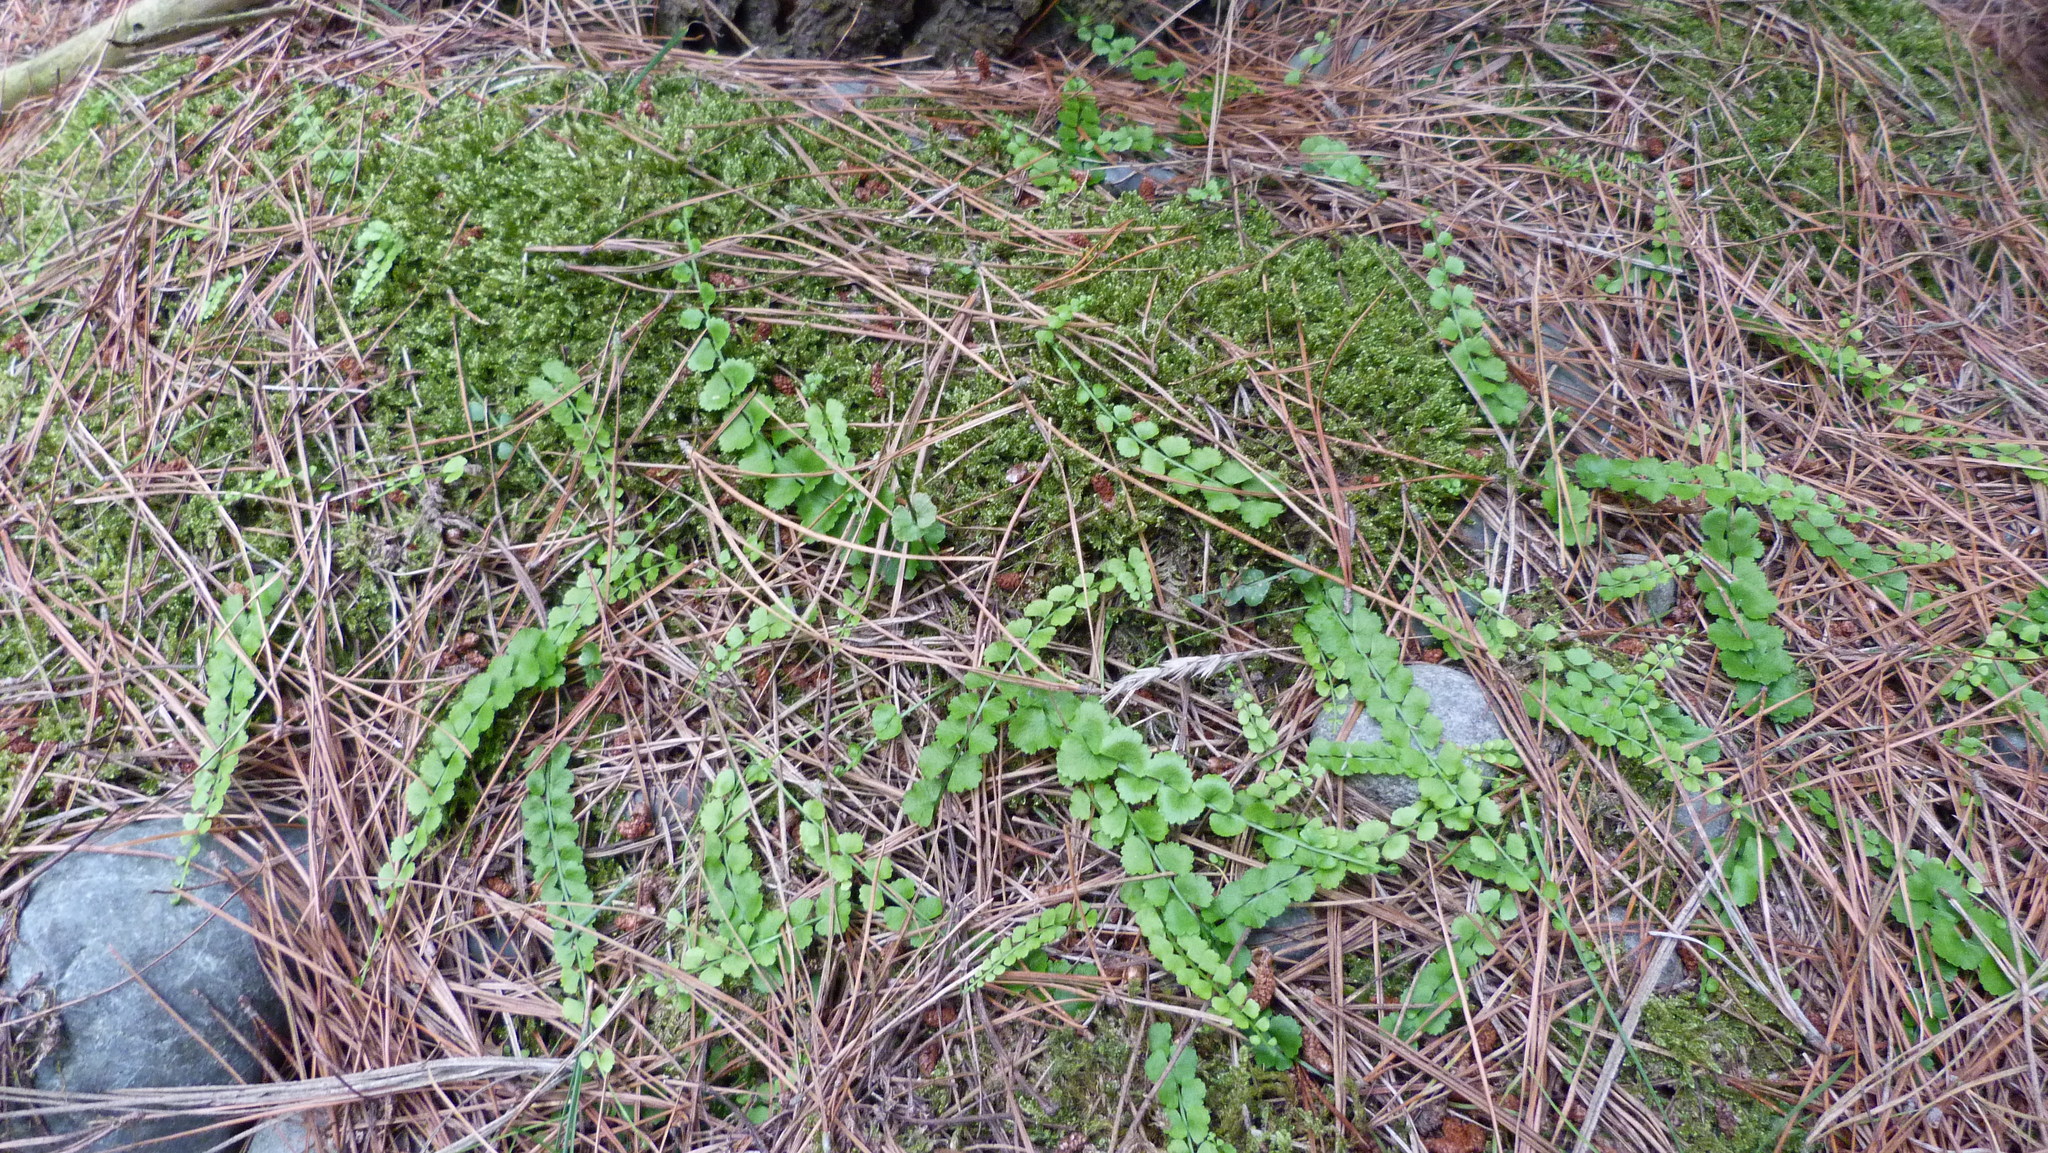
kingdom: Plantae
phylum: Tracheophyta
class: Polypodiopsida
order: Polypodiales
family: Aspleniaceae
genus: Asplenium
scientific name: Asplenium flabellifolium
